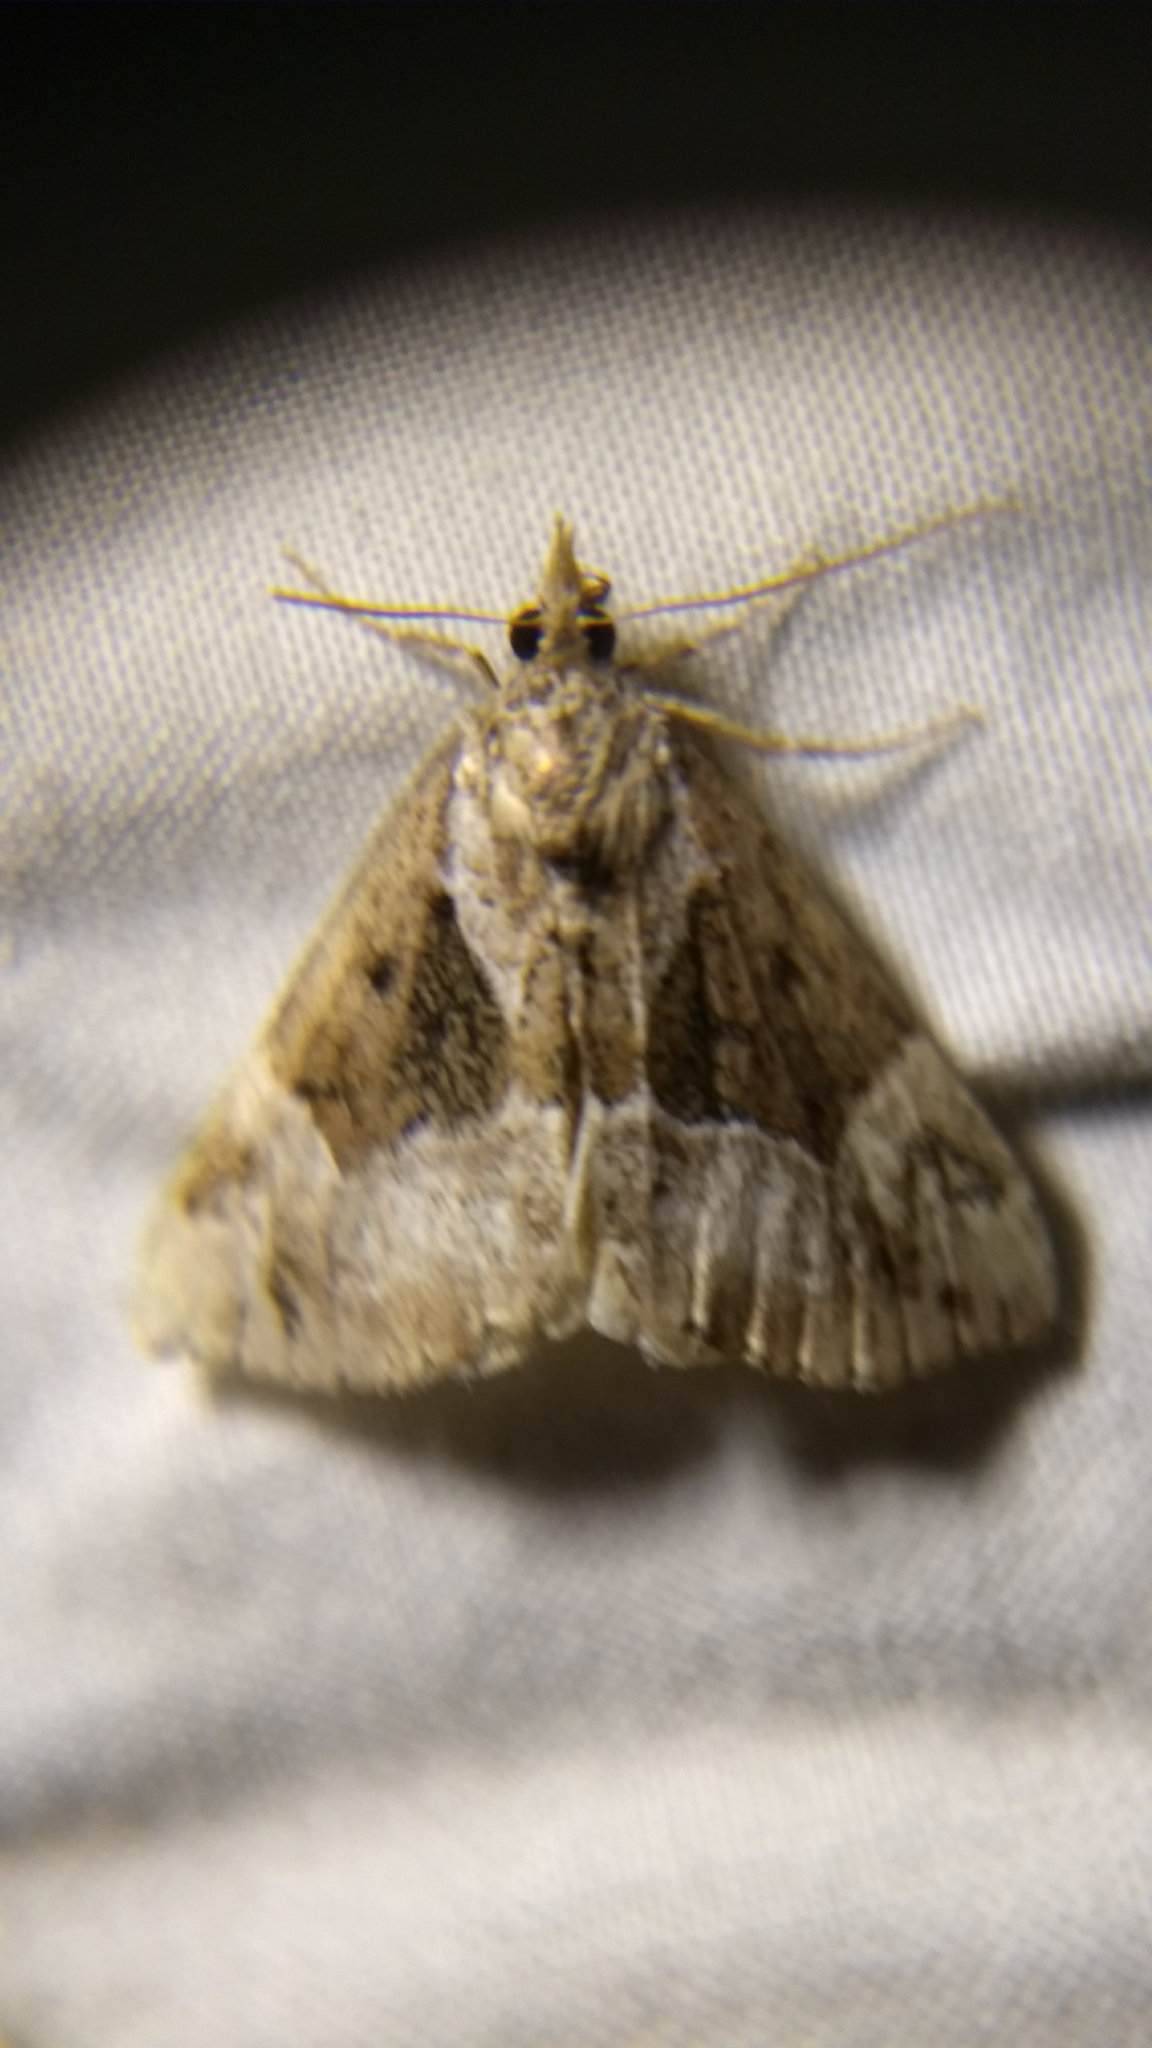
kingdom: Animalia
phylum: Arthropoda
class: Insecta
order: Lepidoptera
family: Erebidae
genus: Hypena
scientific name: Hypena palparia
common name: Mottled bomolocha moth
